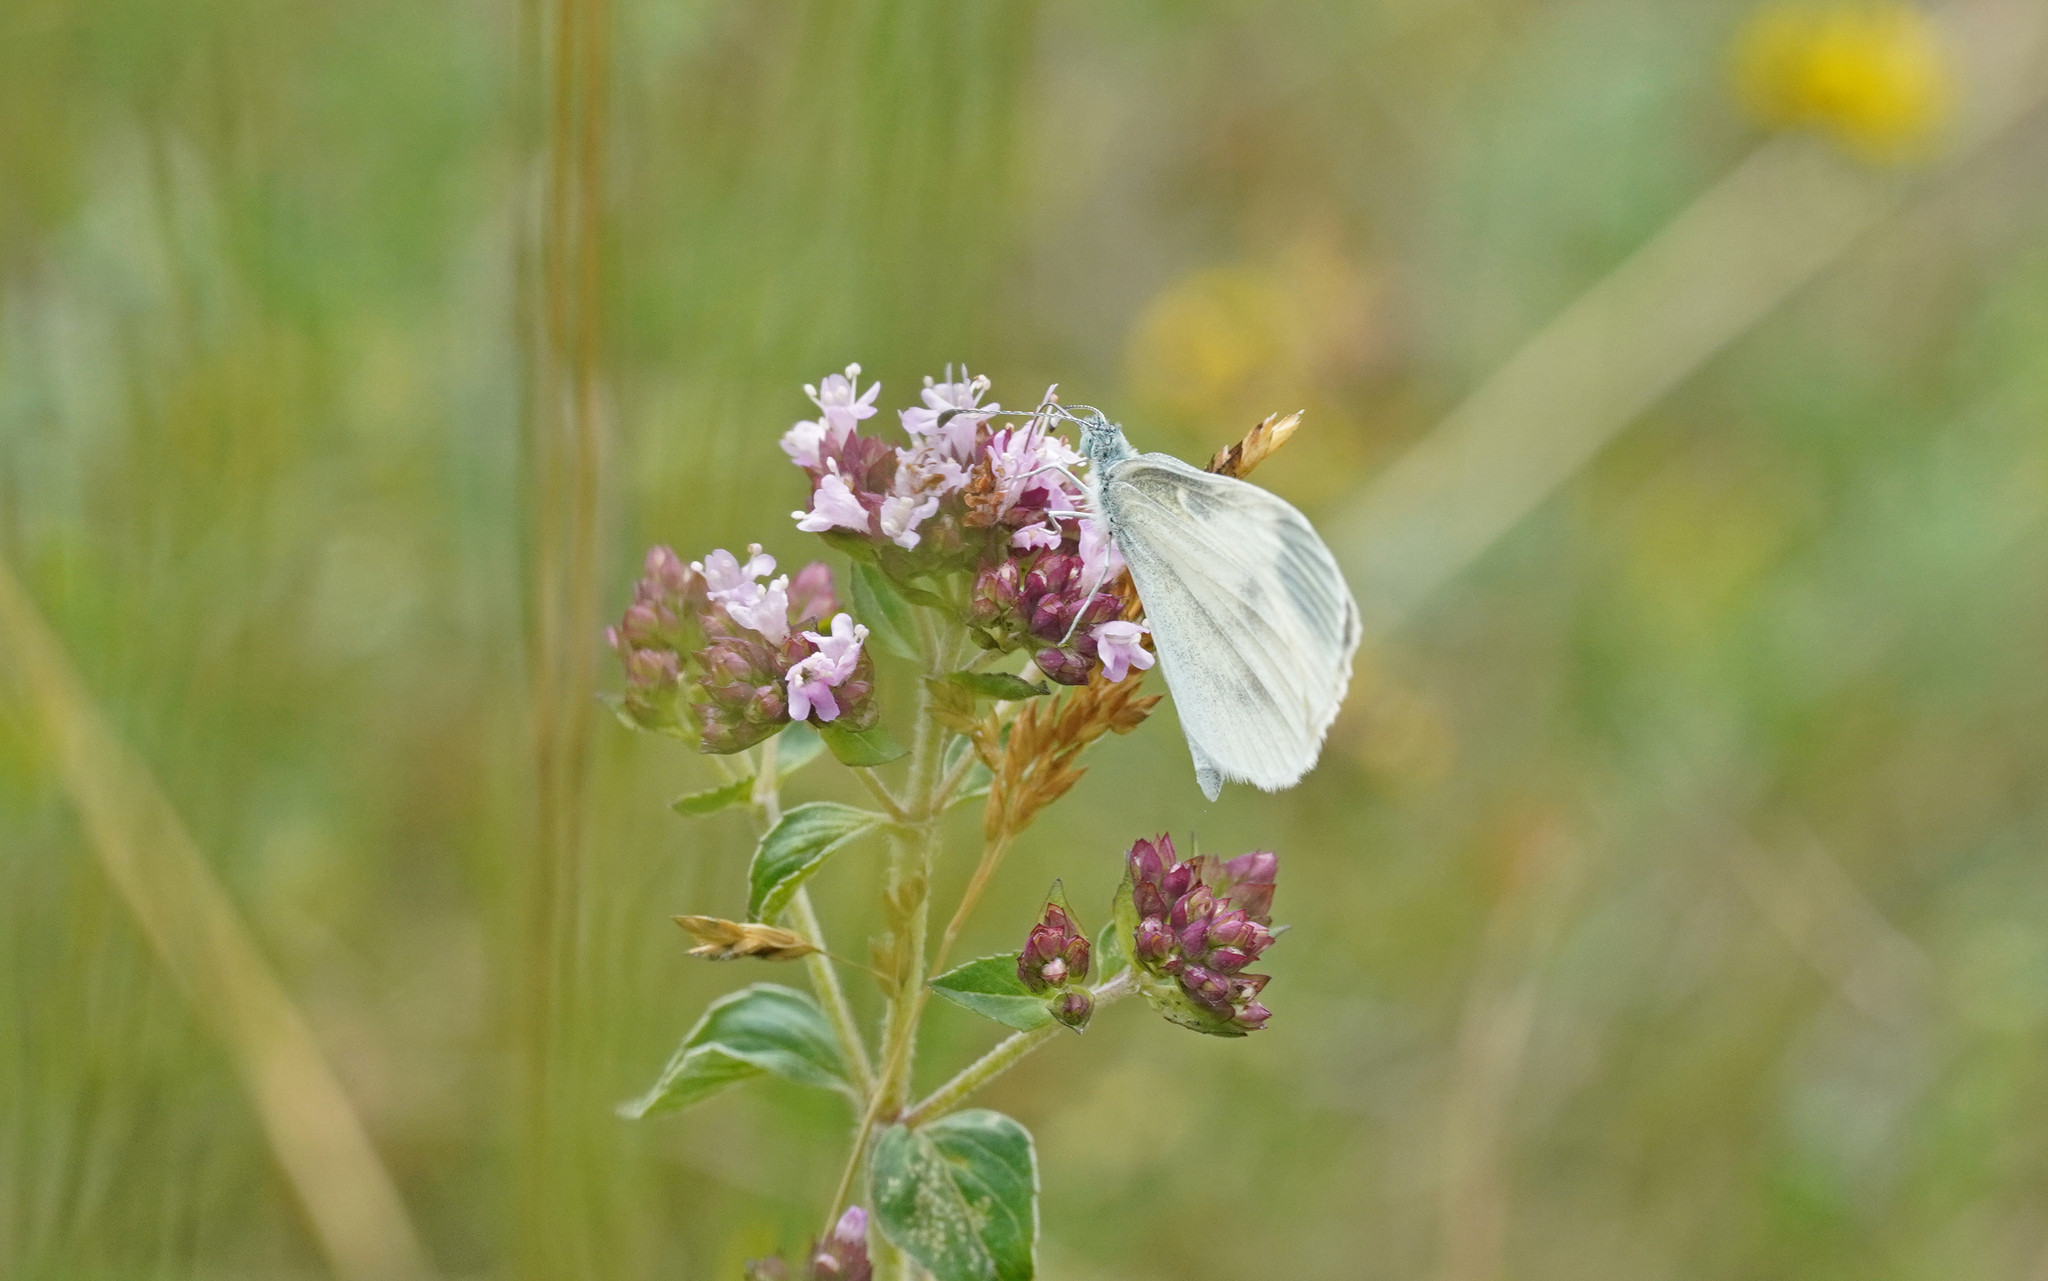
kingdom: Animalia
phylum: Arthropoda
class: Insecta
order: Lepidoptera
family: Pieridae
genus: Leptidea
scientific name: Leptidea
